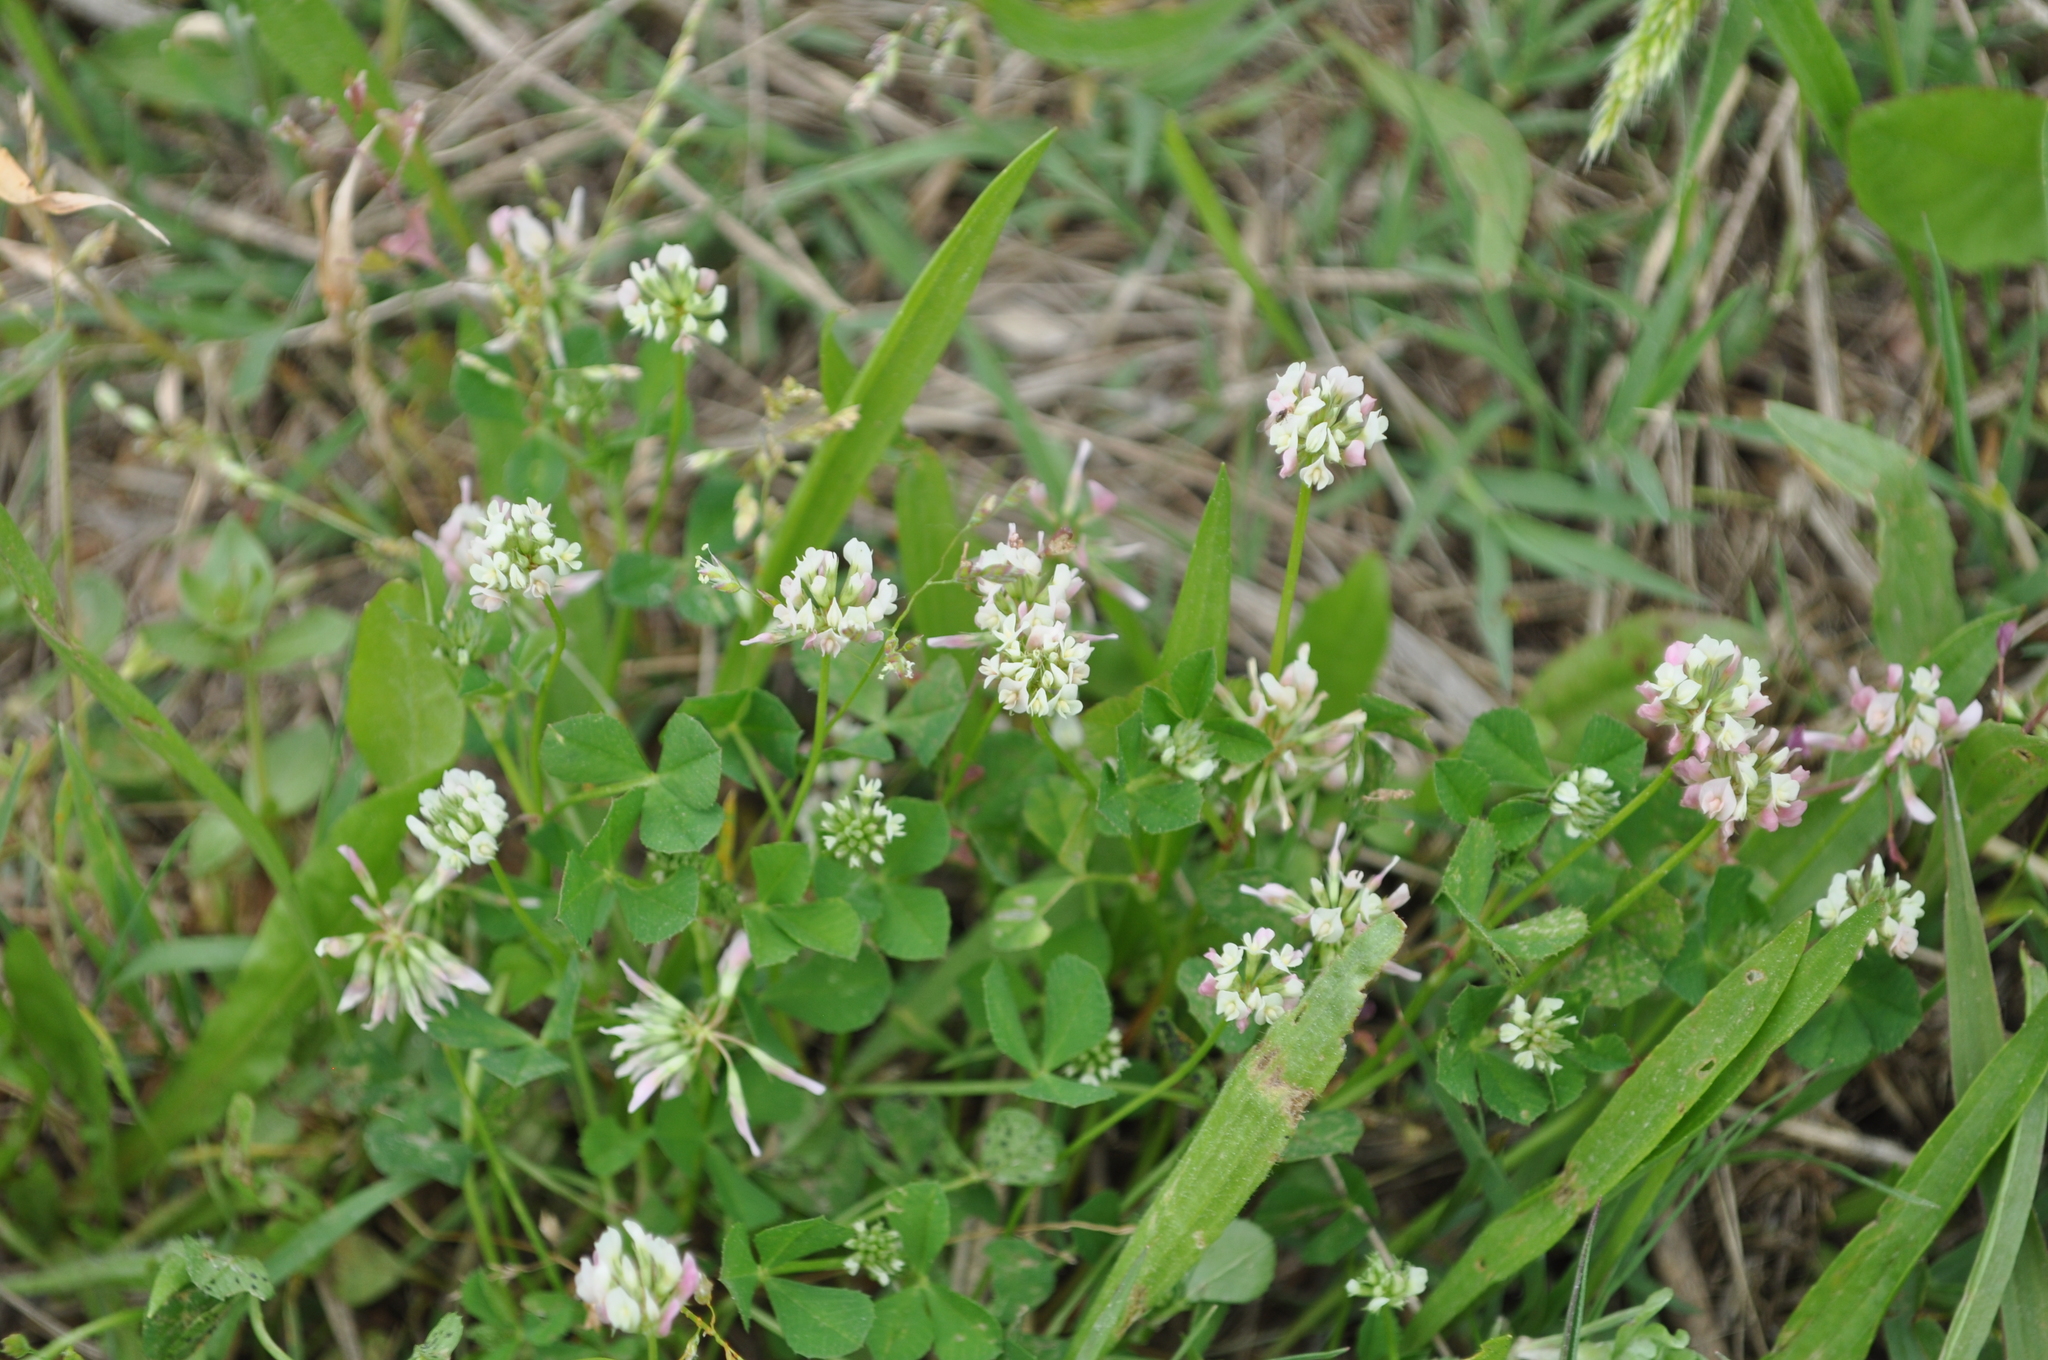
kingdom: Plantae
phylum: Tracheophyta
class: Magnoliopsida
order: Fabales
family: Fabaceae
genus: Trifolium
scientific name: Trifolium nigrescens
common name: Small white clover
